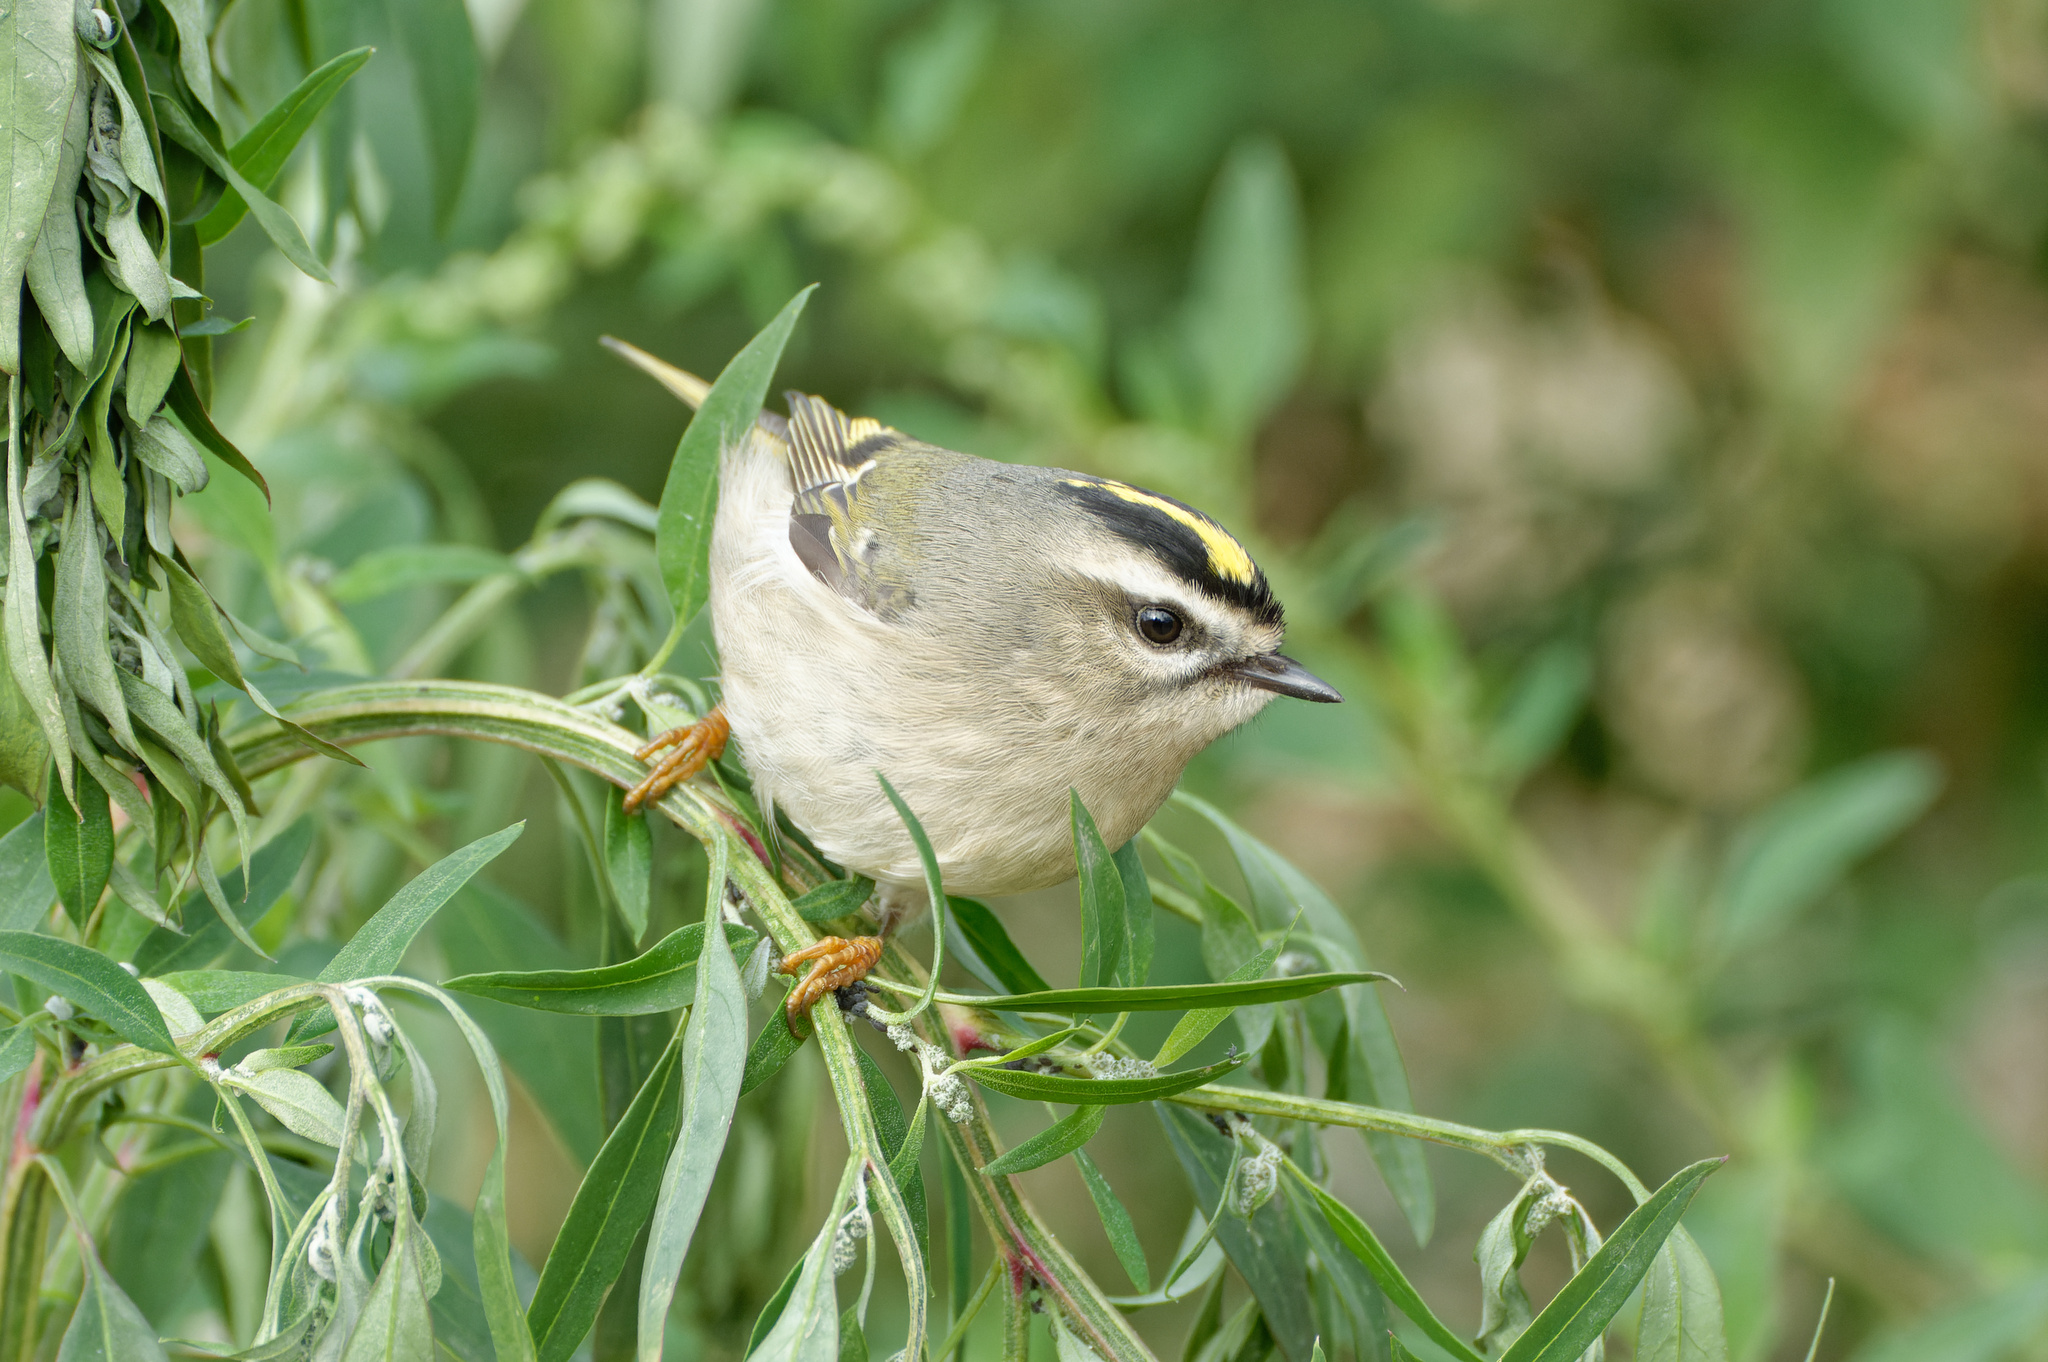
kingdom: Animalia
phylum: Chordata
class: Aves
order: Passeriformes
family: Regulidae
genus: Regulus
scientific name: Regulus satrapa
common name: Golden-crowned kinglet
